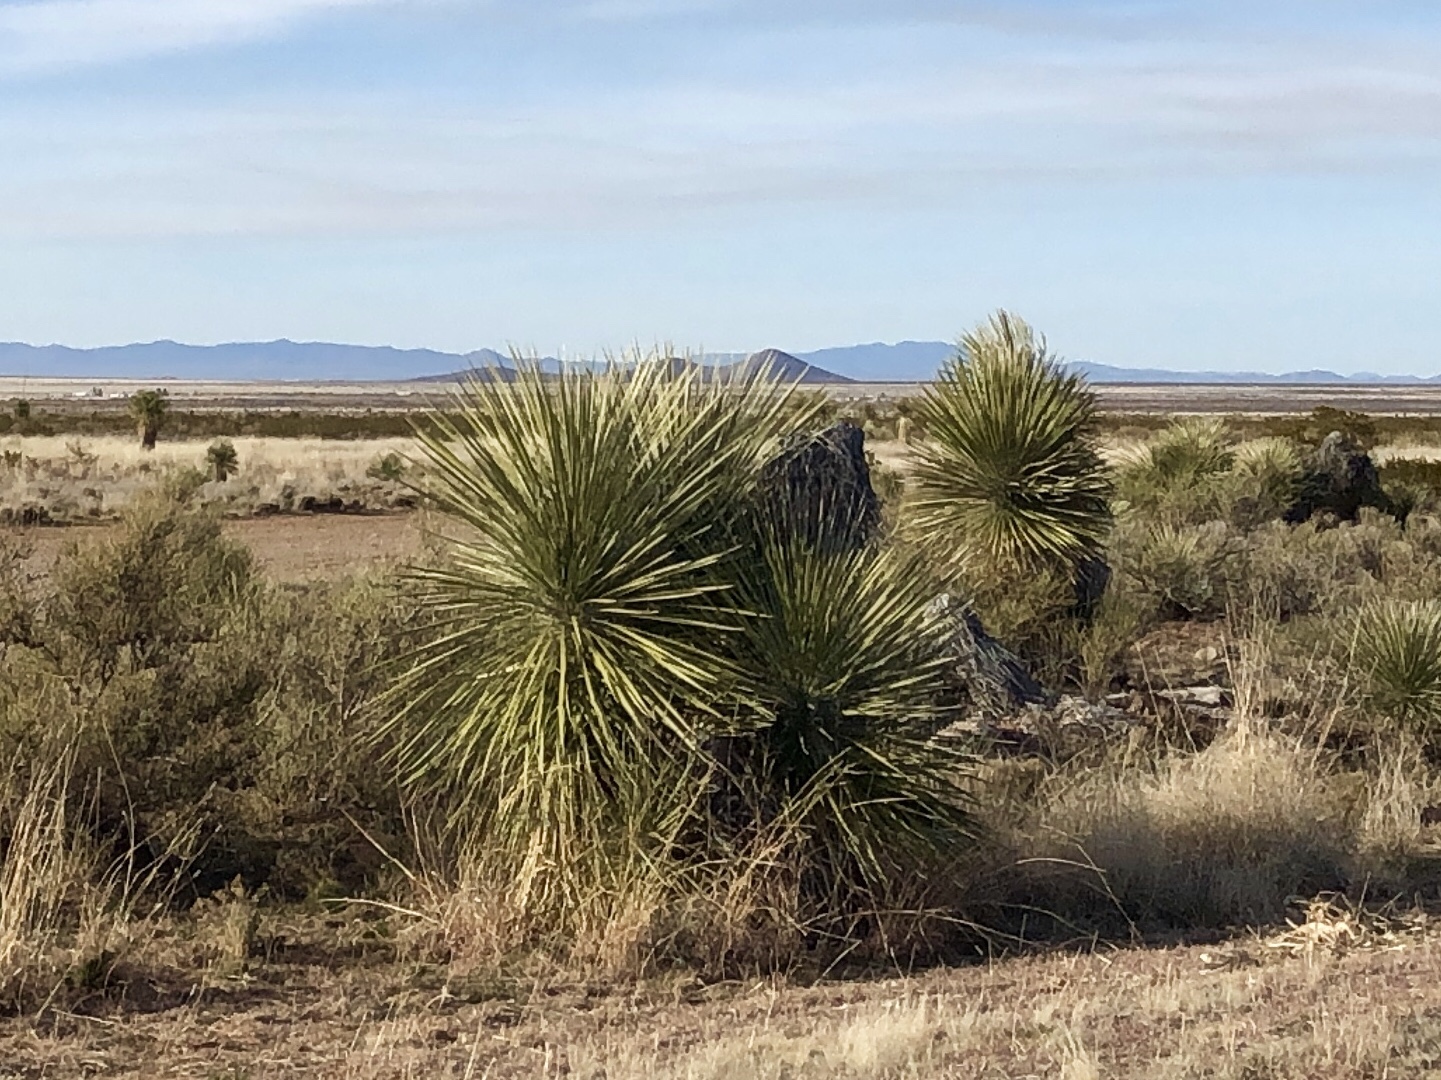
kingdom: Plantae
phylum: Tracheophyta
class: Liliopsida
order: Asparagales
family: Asparagaceae
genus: Yucca
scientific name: Yucca elata
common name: Palmella
